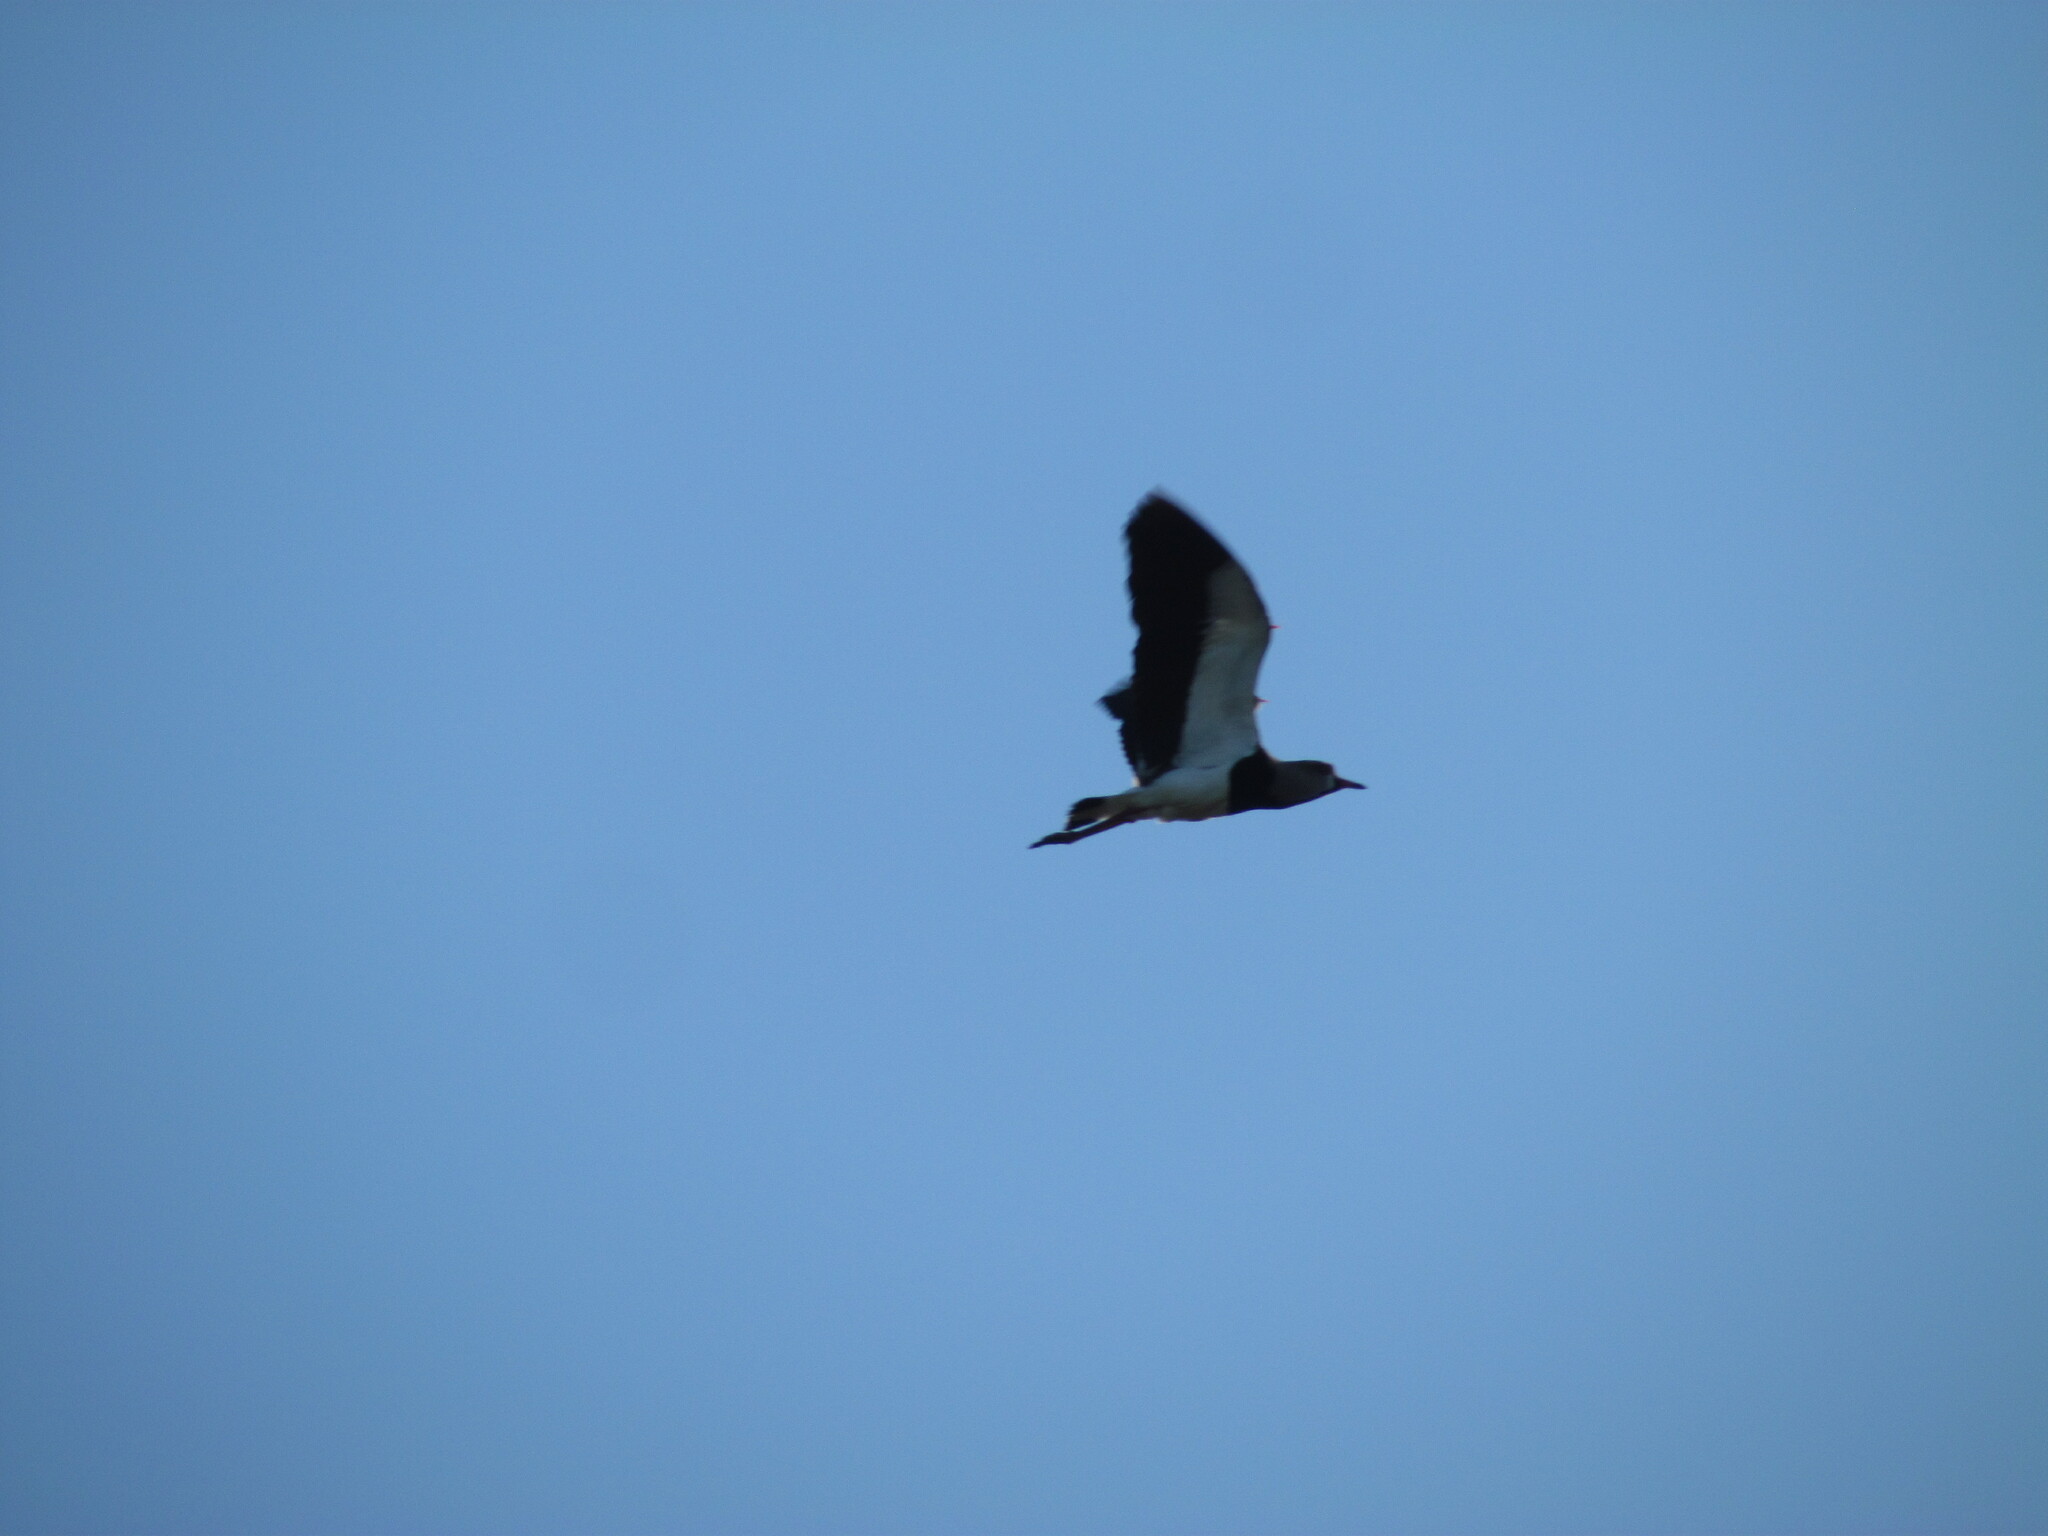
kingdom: Animalia
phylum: Chordata
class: Aves
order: Charadriiformes
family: Charadriidae
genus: Vanellus
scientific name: Vanellus chilensis
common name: Southern lapwing
